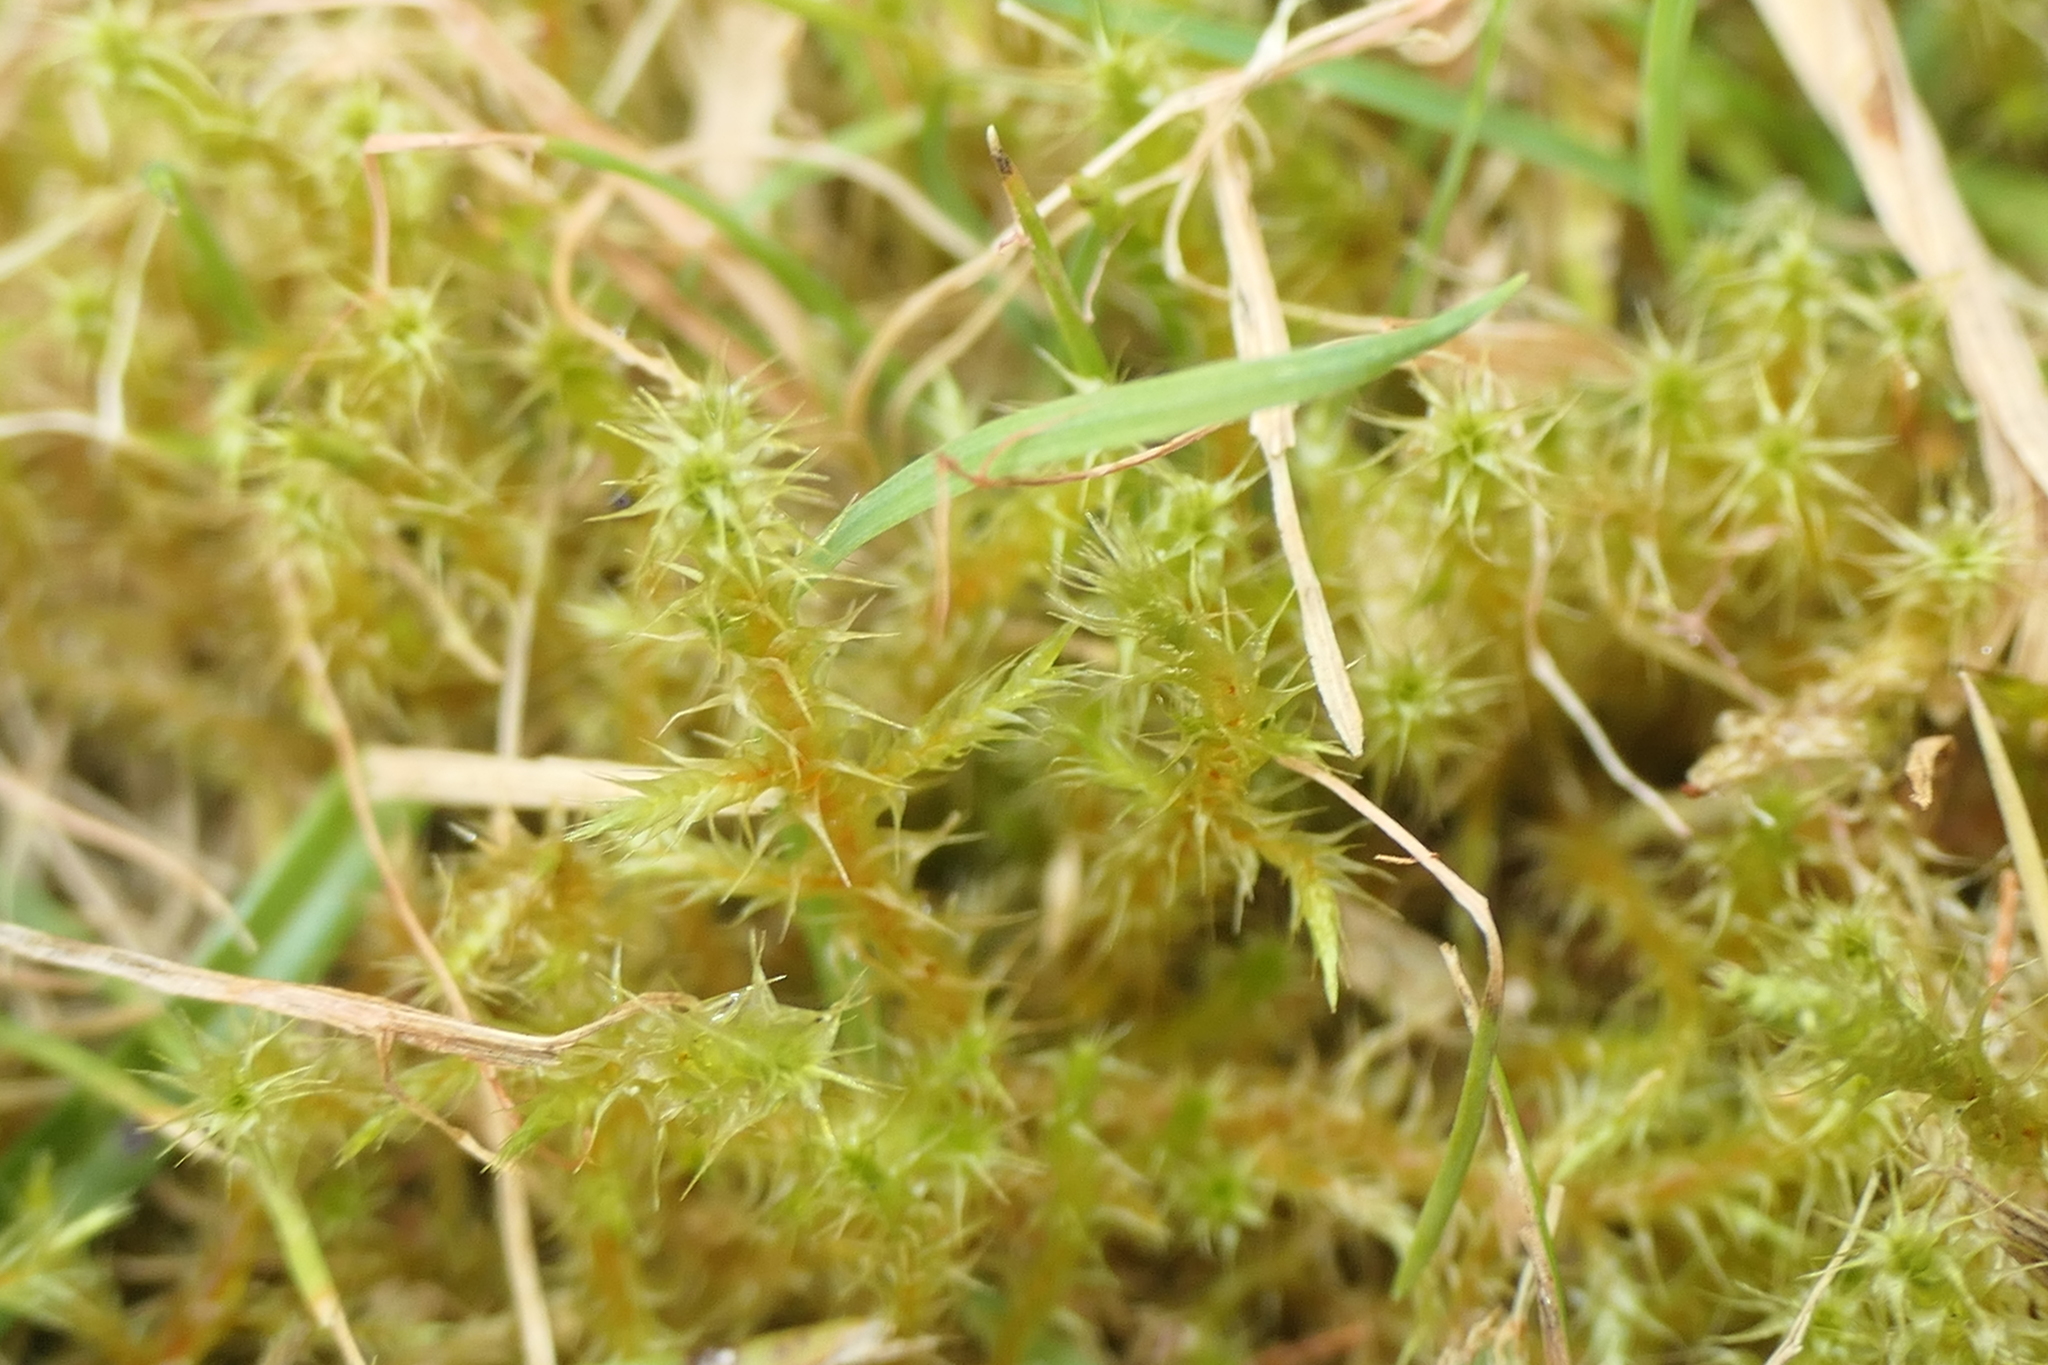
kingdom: Plantae
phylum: Bryophyta
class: Bryopsida
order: Hypnales
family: Hylocomiaceae
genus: Rhytidiadelphus
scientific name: Rhytidiadelphus squarrosus
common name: Springy turf-moss
